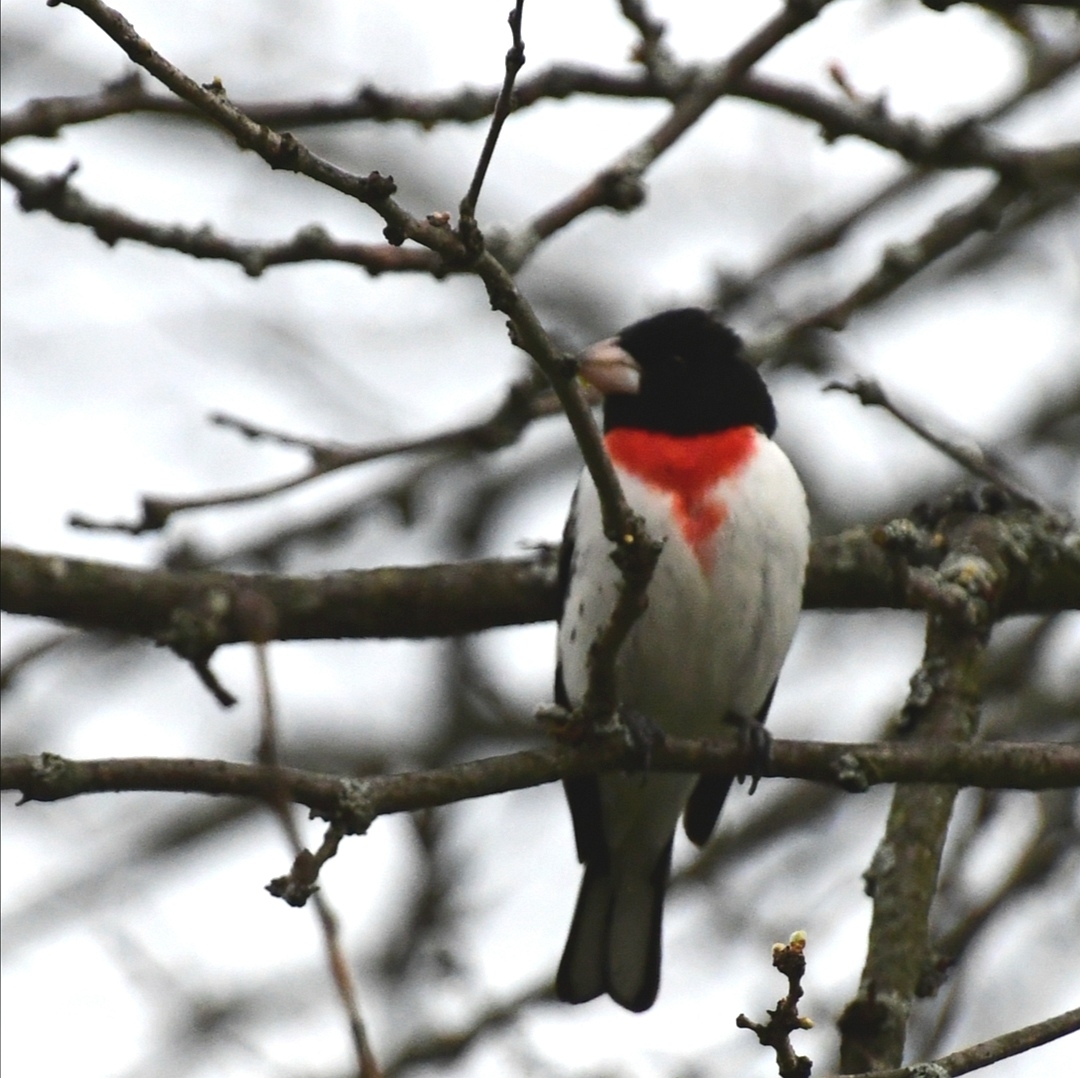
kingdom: Animalia
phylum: Chordata
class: Aves
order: Passeriformes
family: Cardinalidae
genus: Pheucticus
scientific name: Pheucticus ludovicianus
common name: Rose-breasted grosbeak
